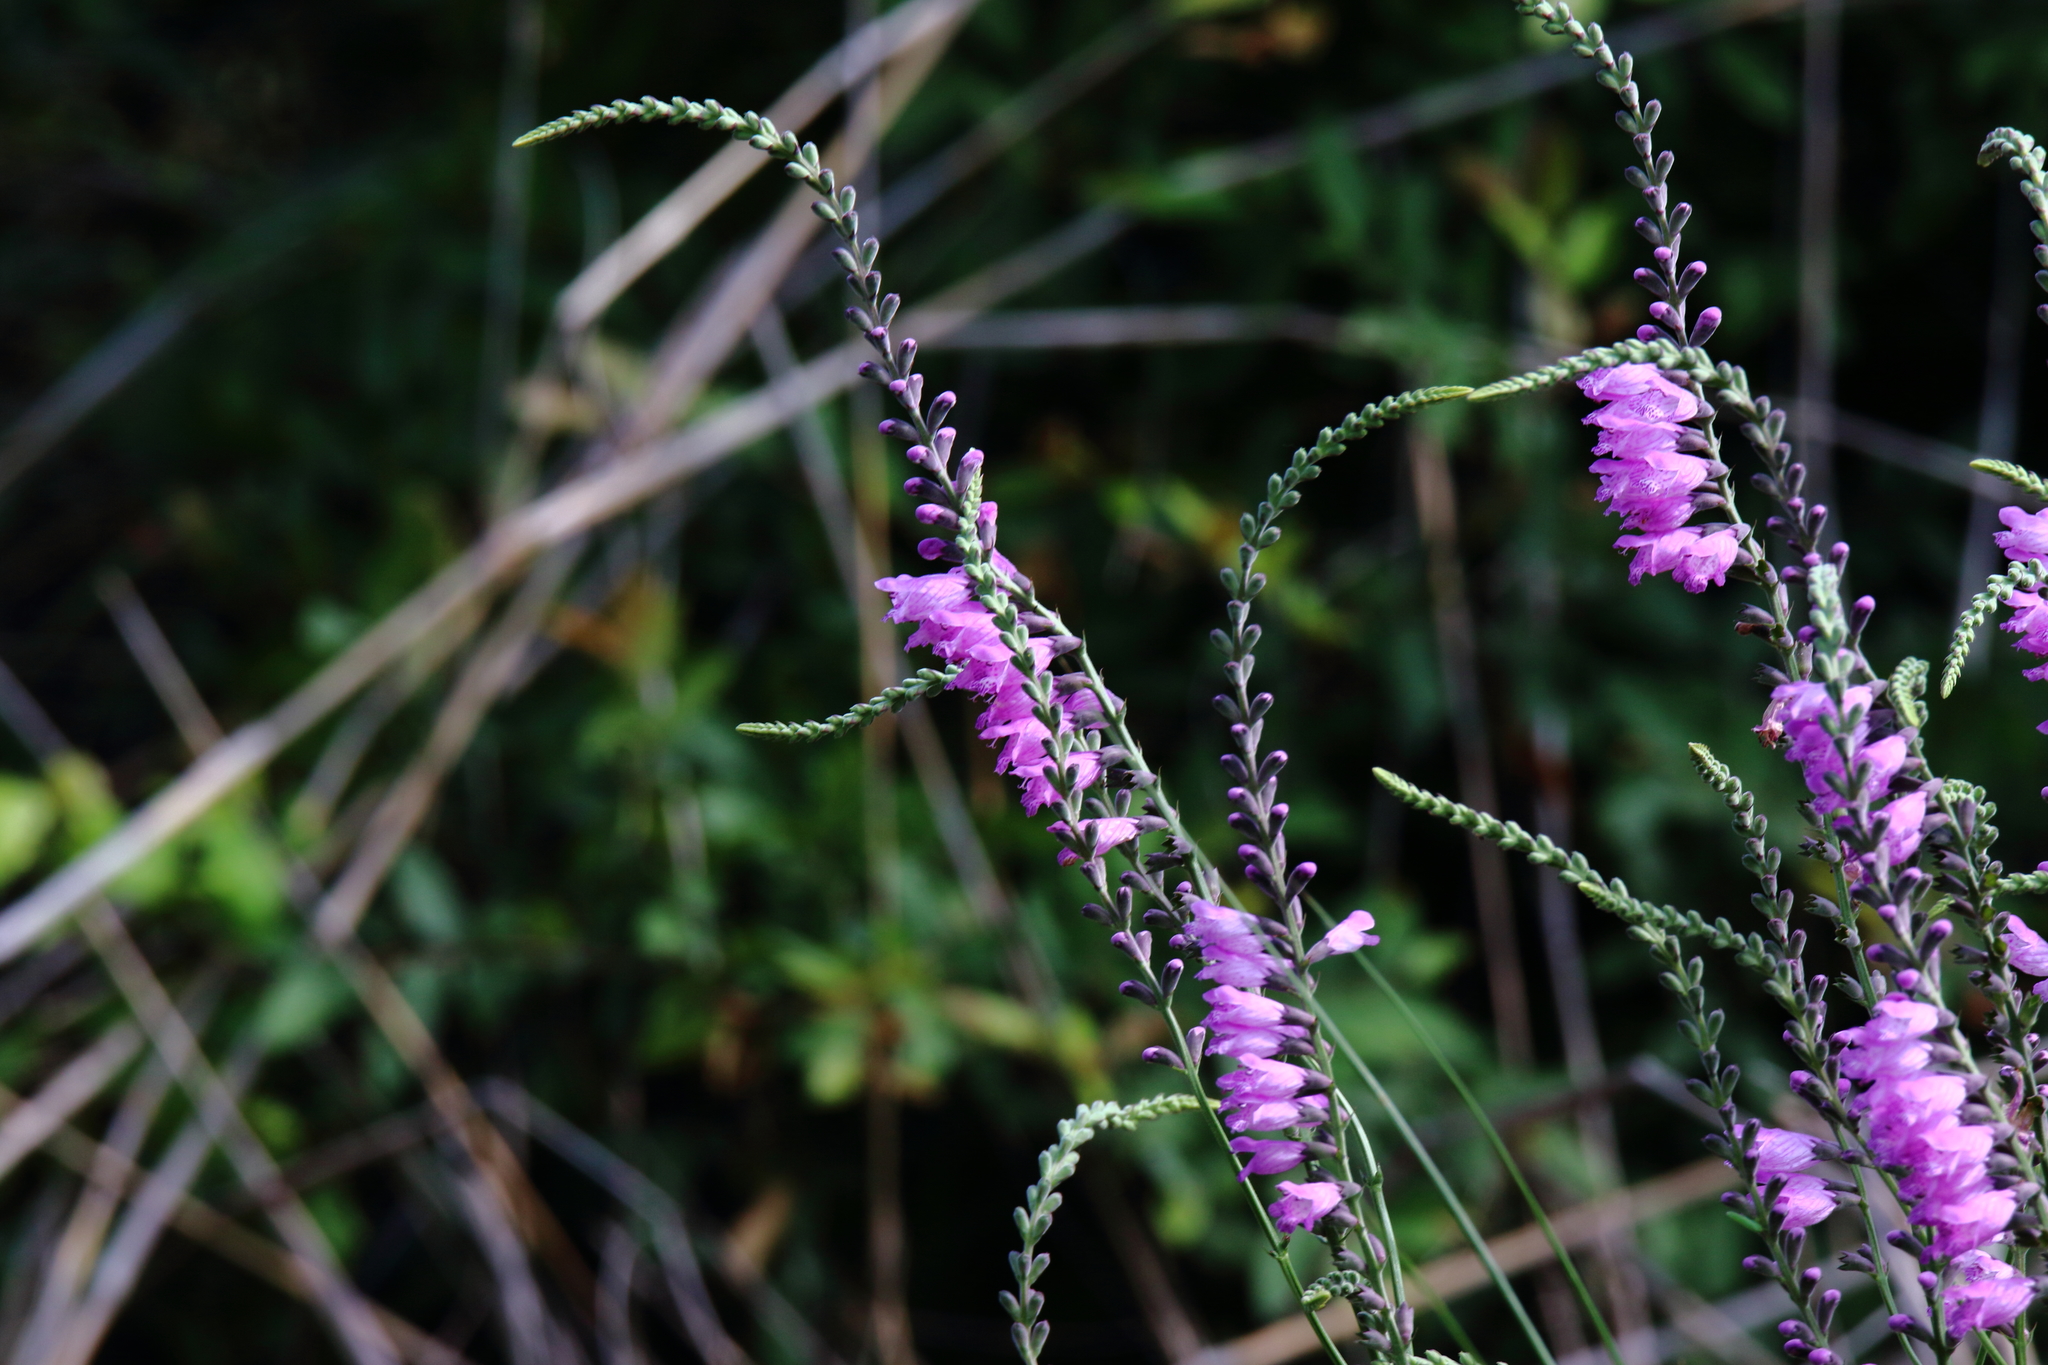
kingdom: Plantae
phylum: Tracheophyta
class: Magnoliopsida
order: Lamiales
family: Lamiaceae
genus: Physostegia
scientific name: Physostegia virginiana
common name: Obedient-plant
